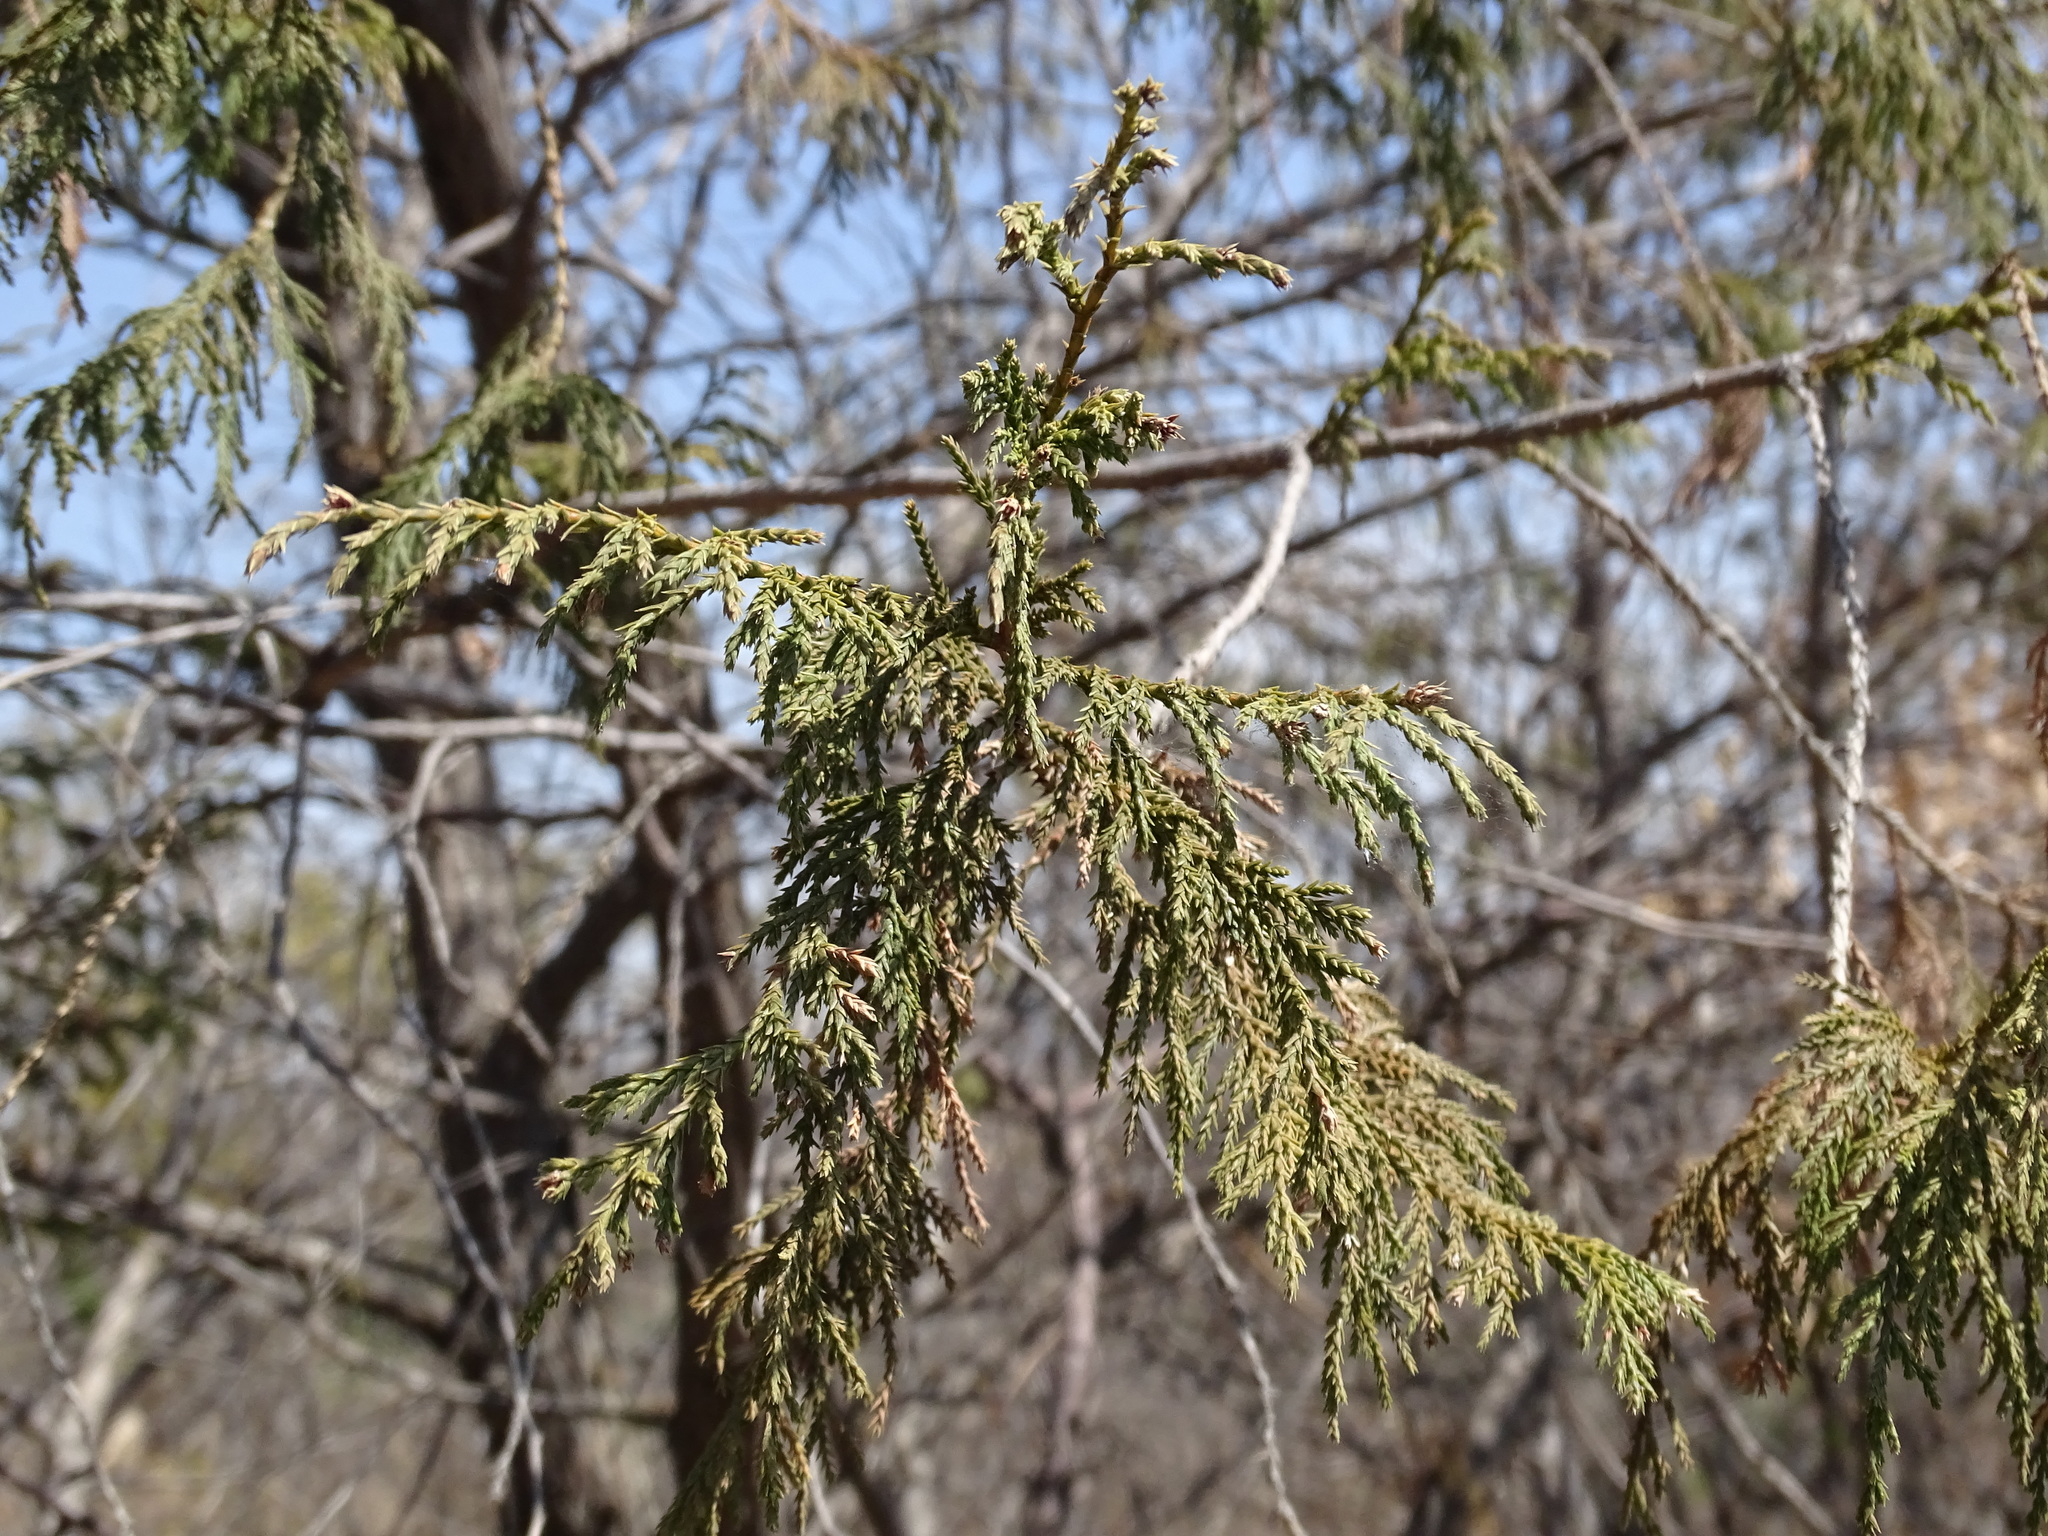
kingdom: Plantae
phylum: Tracheophyta
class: Pinopsida
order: Pinales
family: Cupressaceae
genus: Juniperus
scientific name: Juniperus flaccida
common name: Drooping juniper
